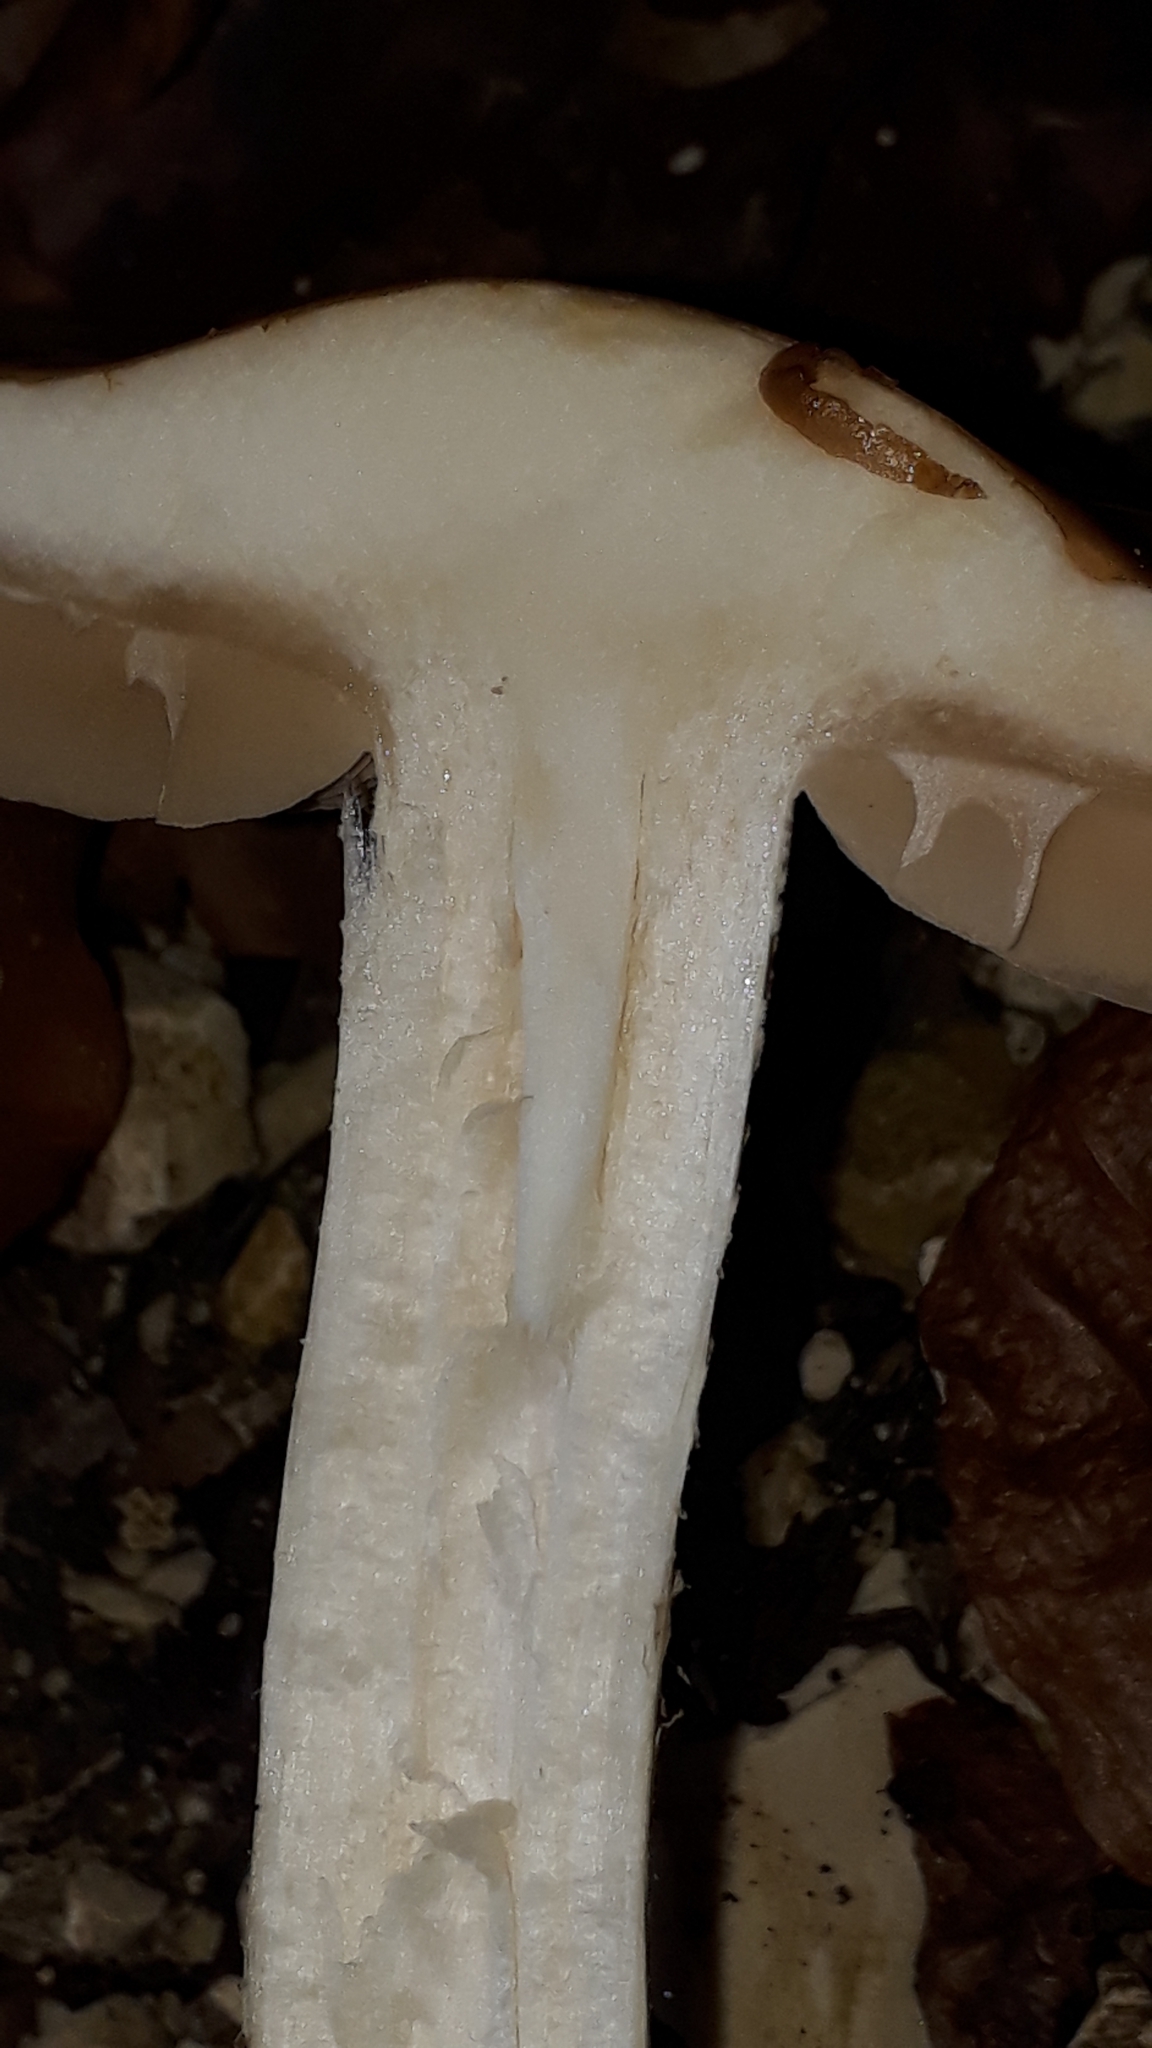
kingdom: Fungi
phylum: Basidiomycota
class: Agaricomycetes
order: Agaricales
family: Hymenogastraceae
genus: Hebeloma
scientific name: Hebeloma
